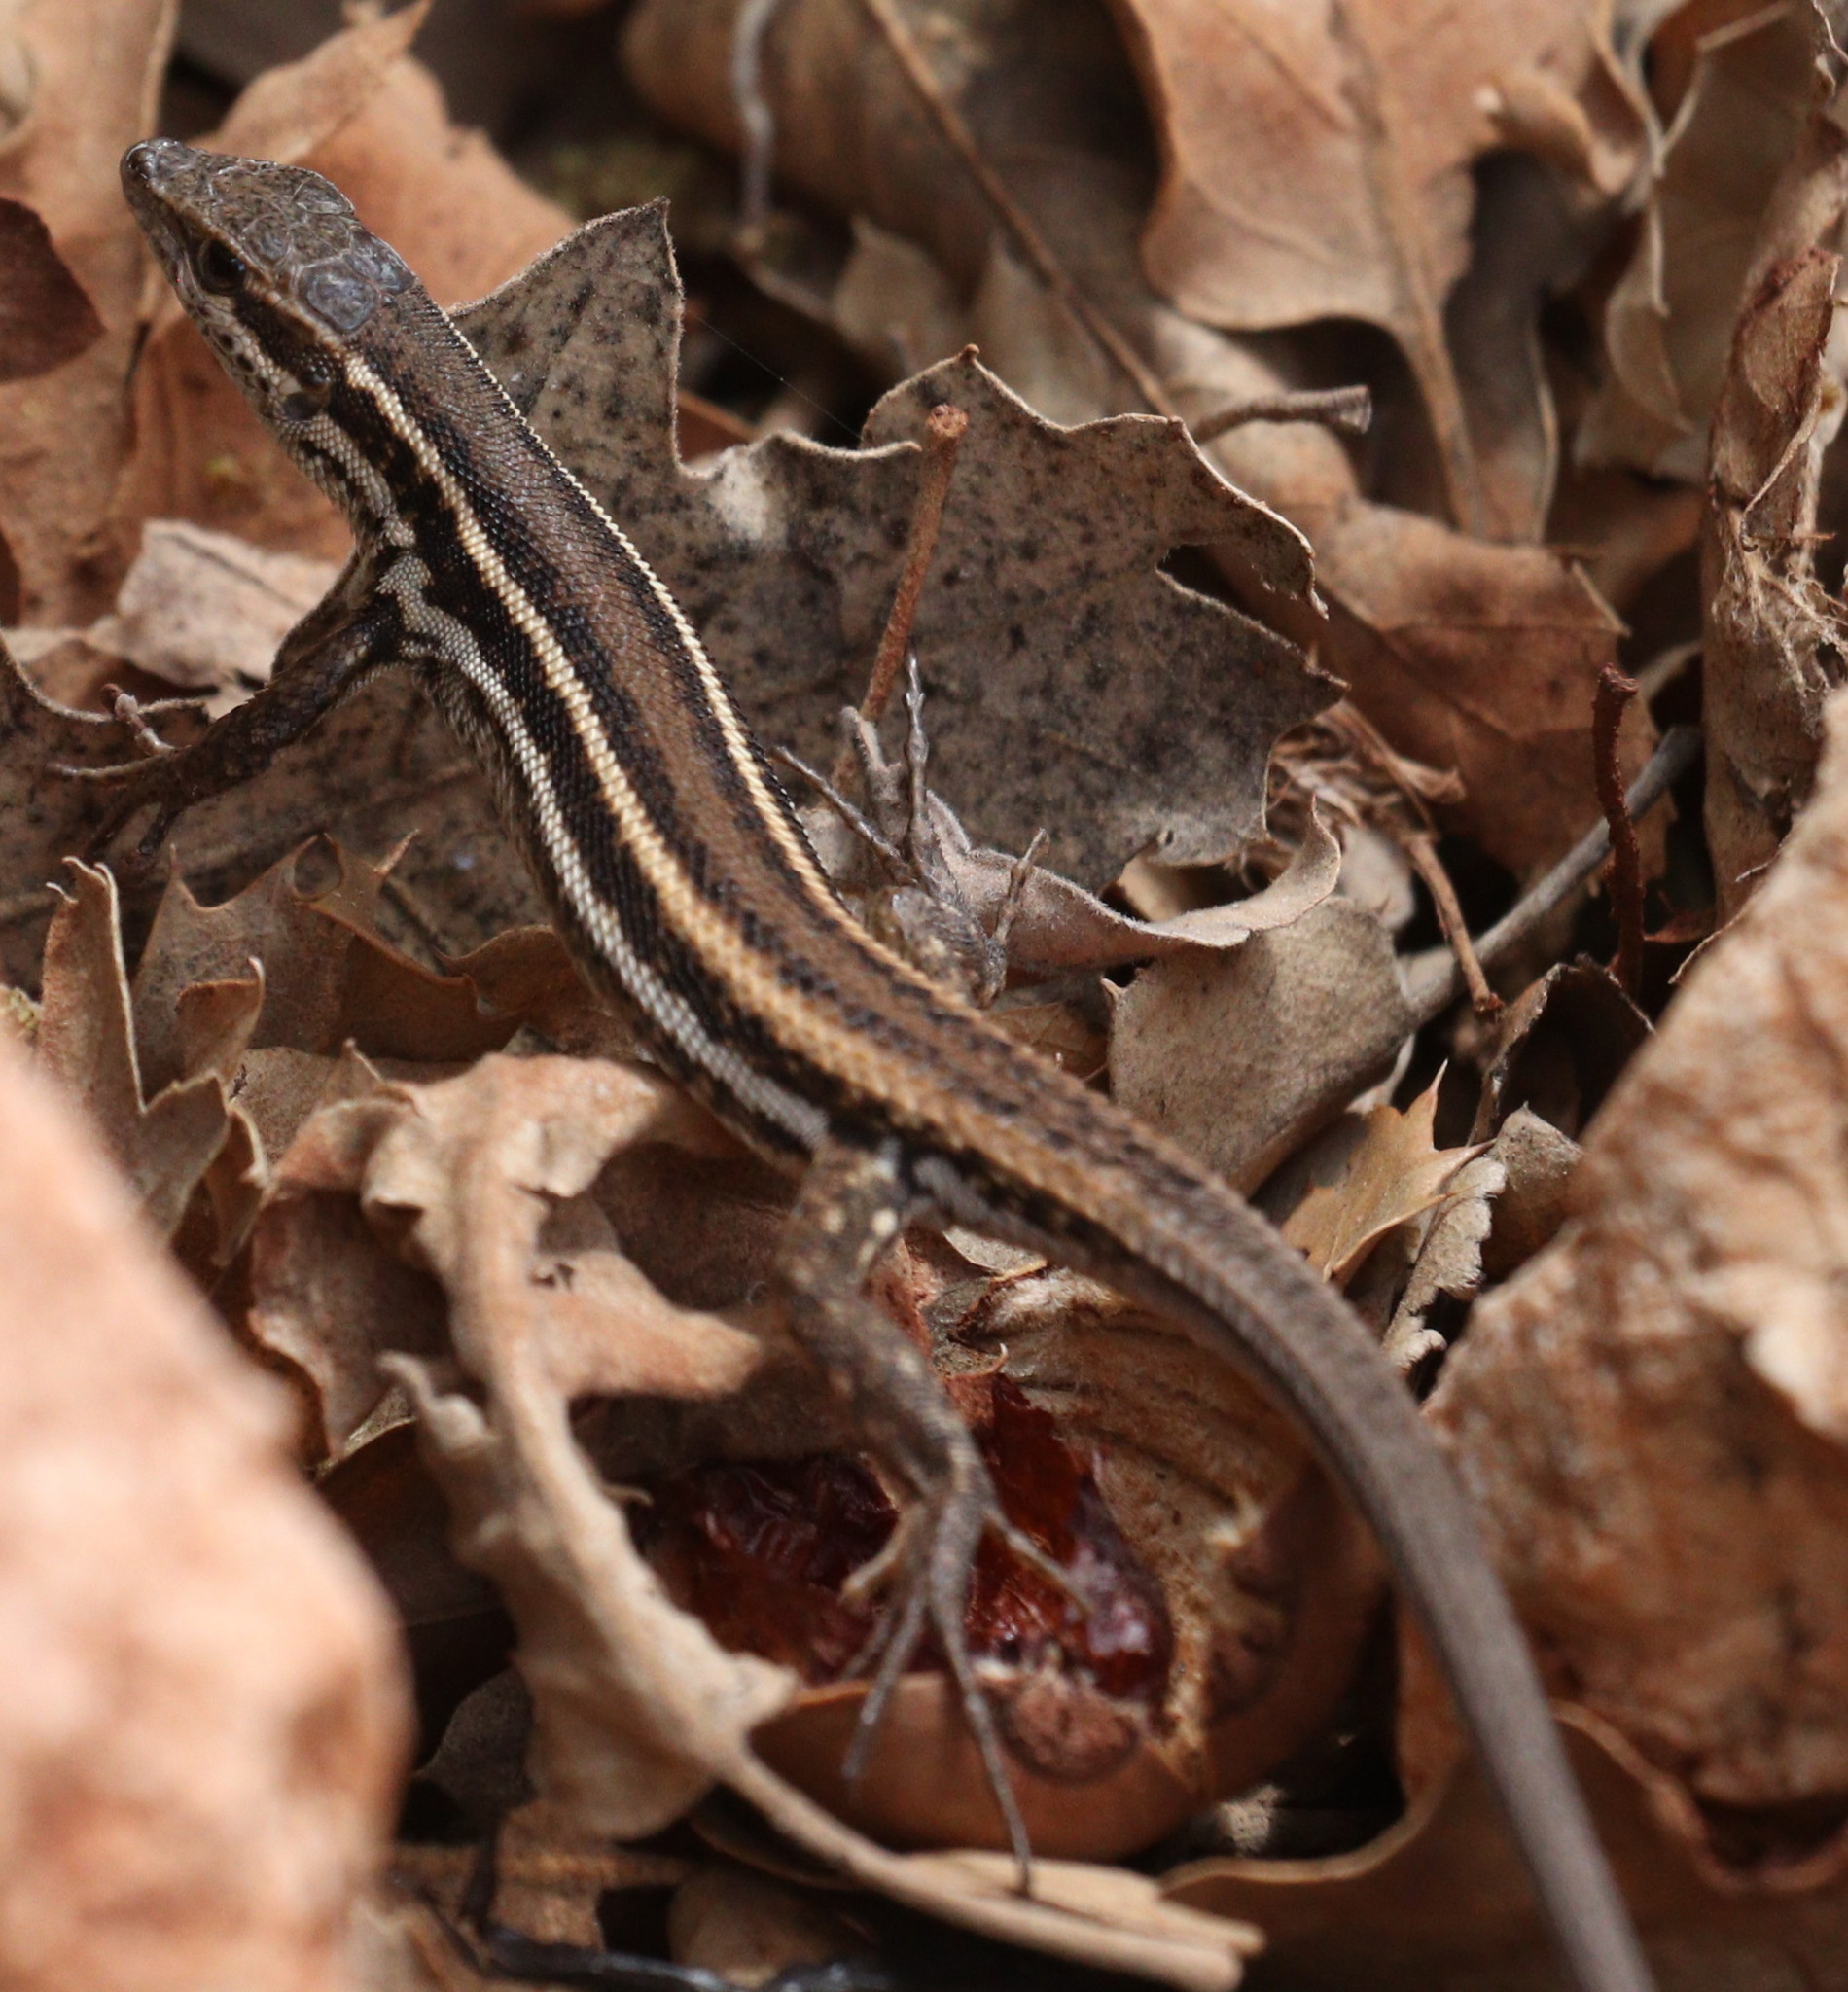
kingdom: Animalia
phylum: Chordata
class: Squamata
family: Lacertidae
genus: Ophisops
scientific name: Ophisops elegans
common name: Snake-eyed lizard
